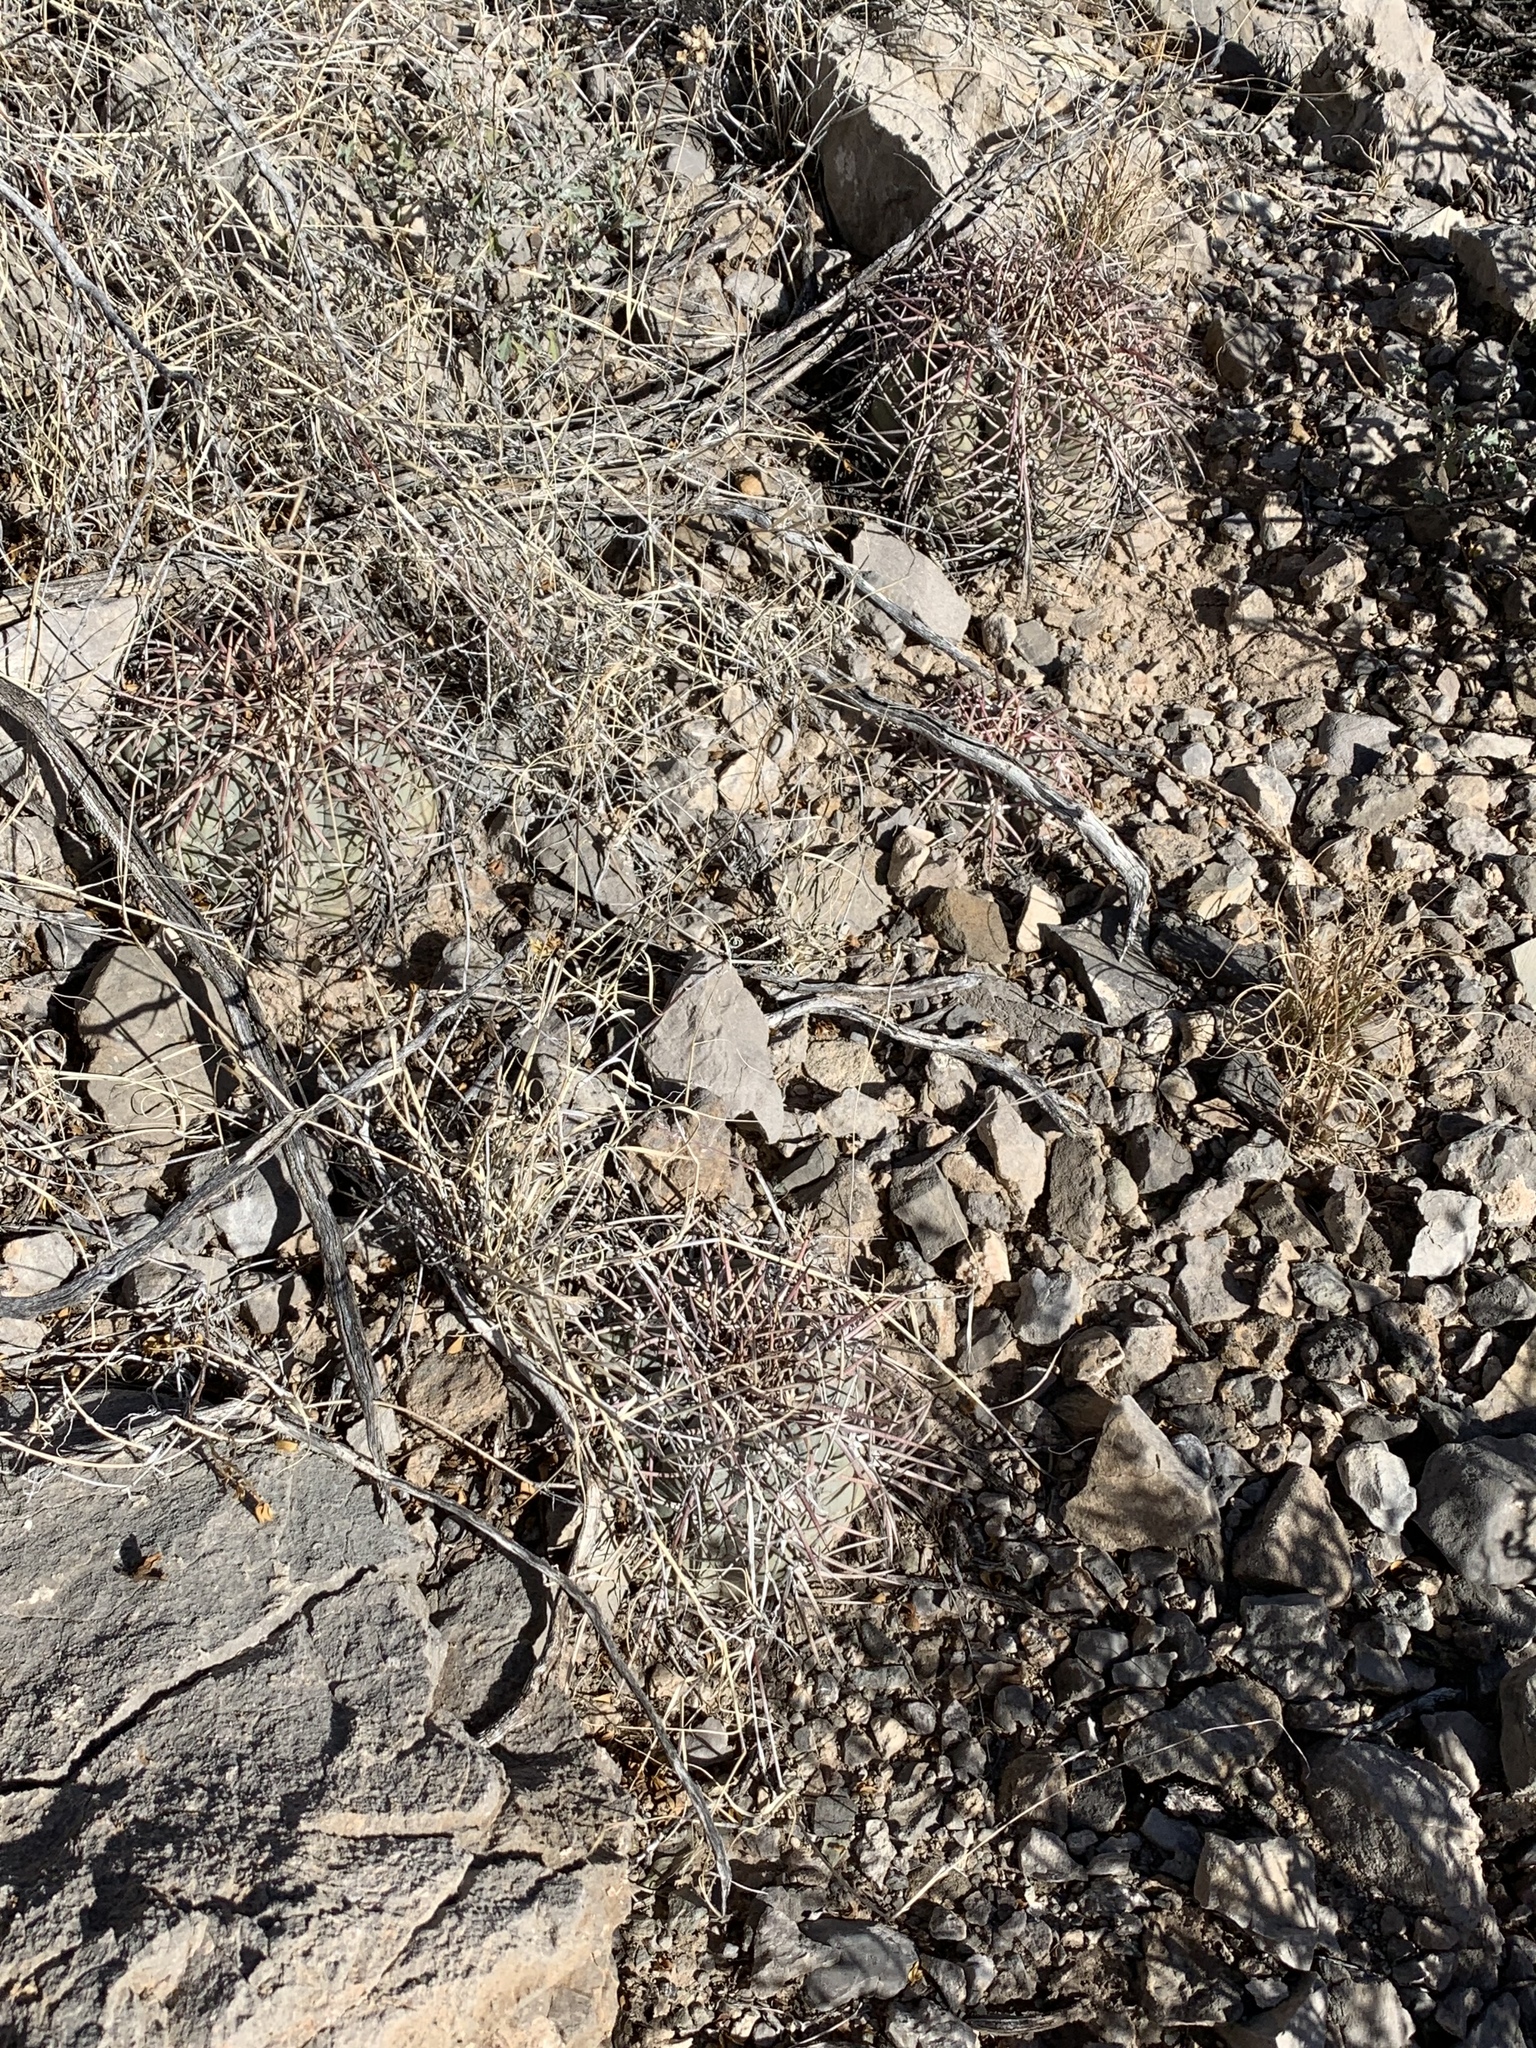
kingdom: Plantae
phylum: Tracheophyta
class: Magnoliopsida
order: Caryophyllales
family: Cactaceae
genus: Echinocactus
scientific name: Echinocactus horizonthalonius
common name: Devilshead
